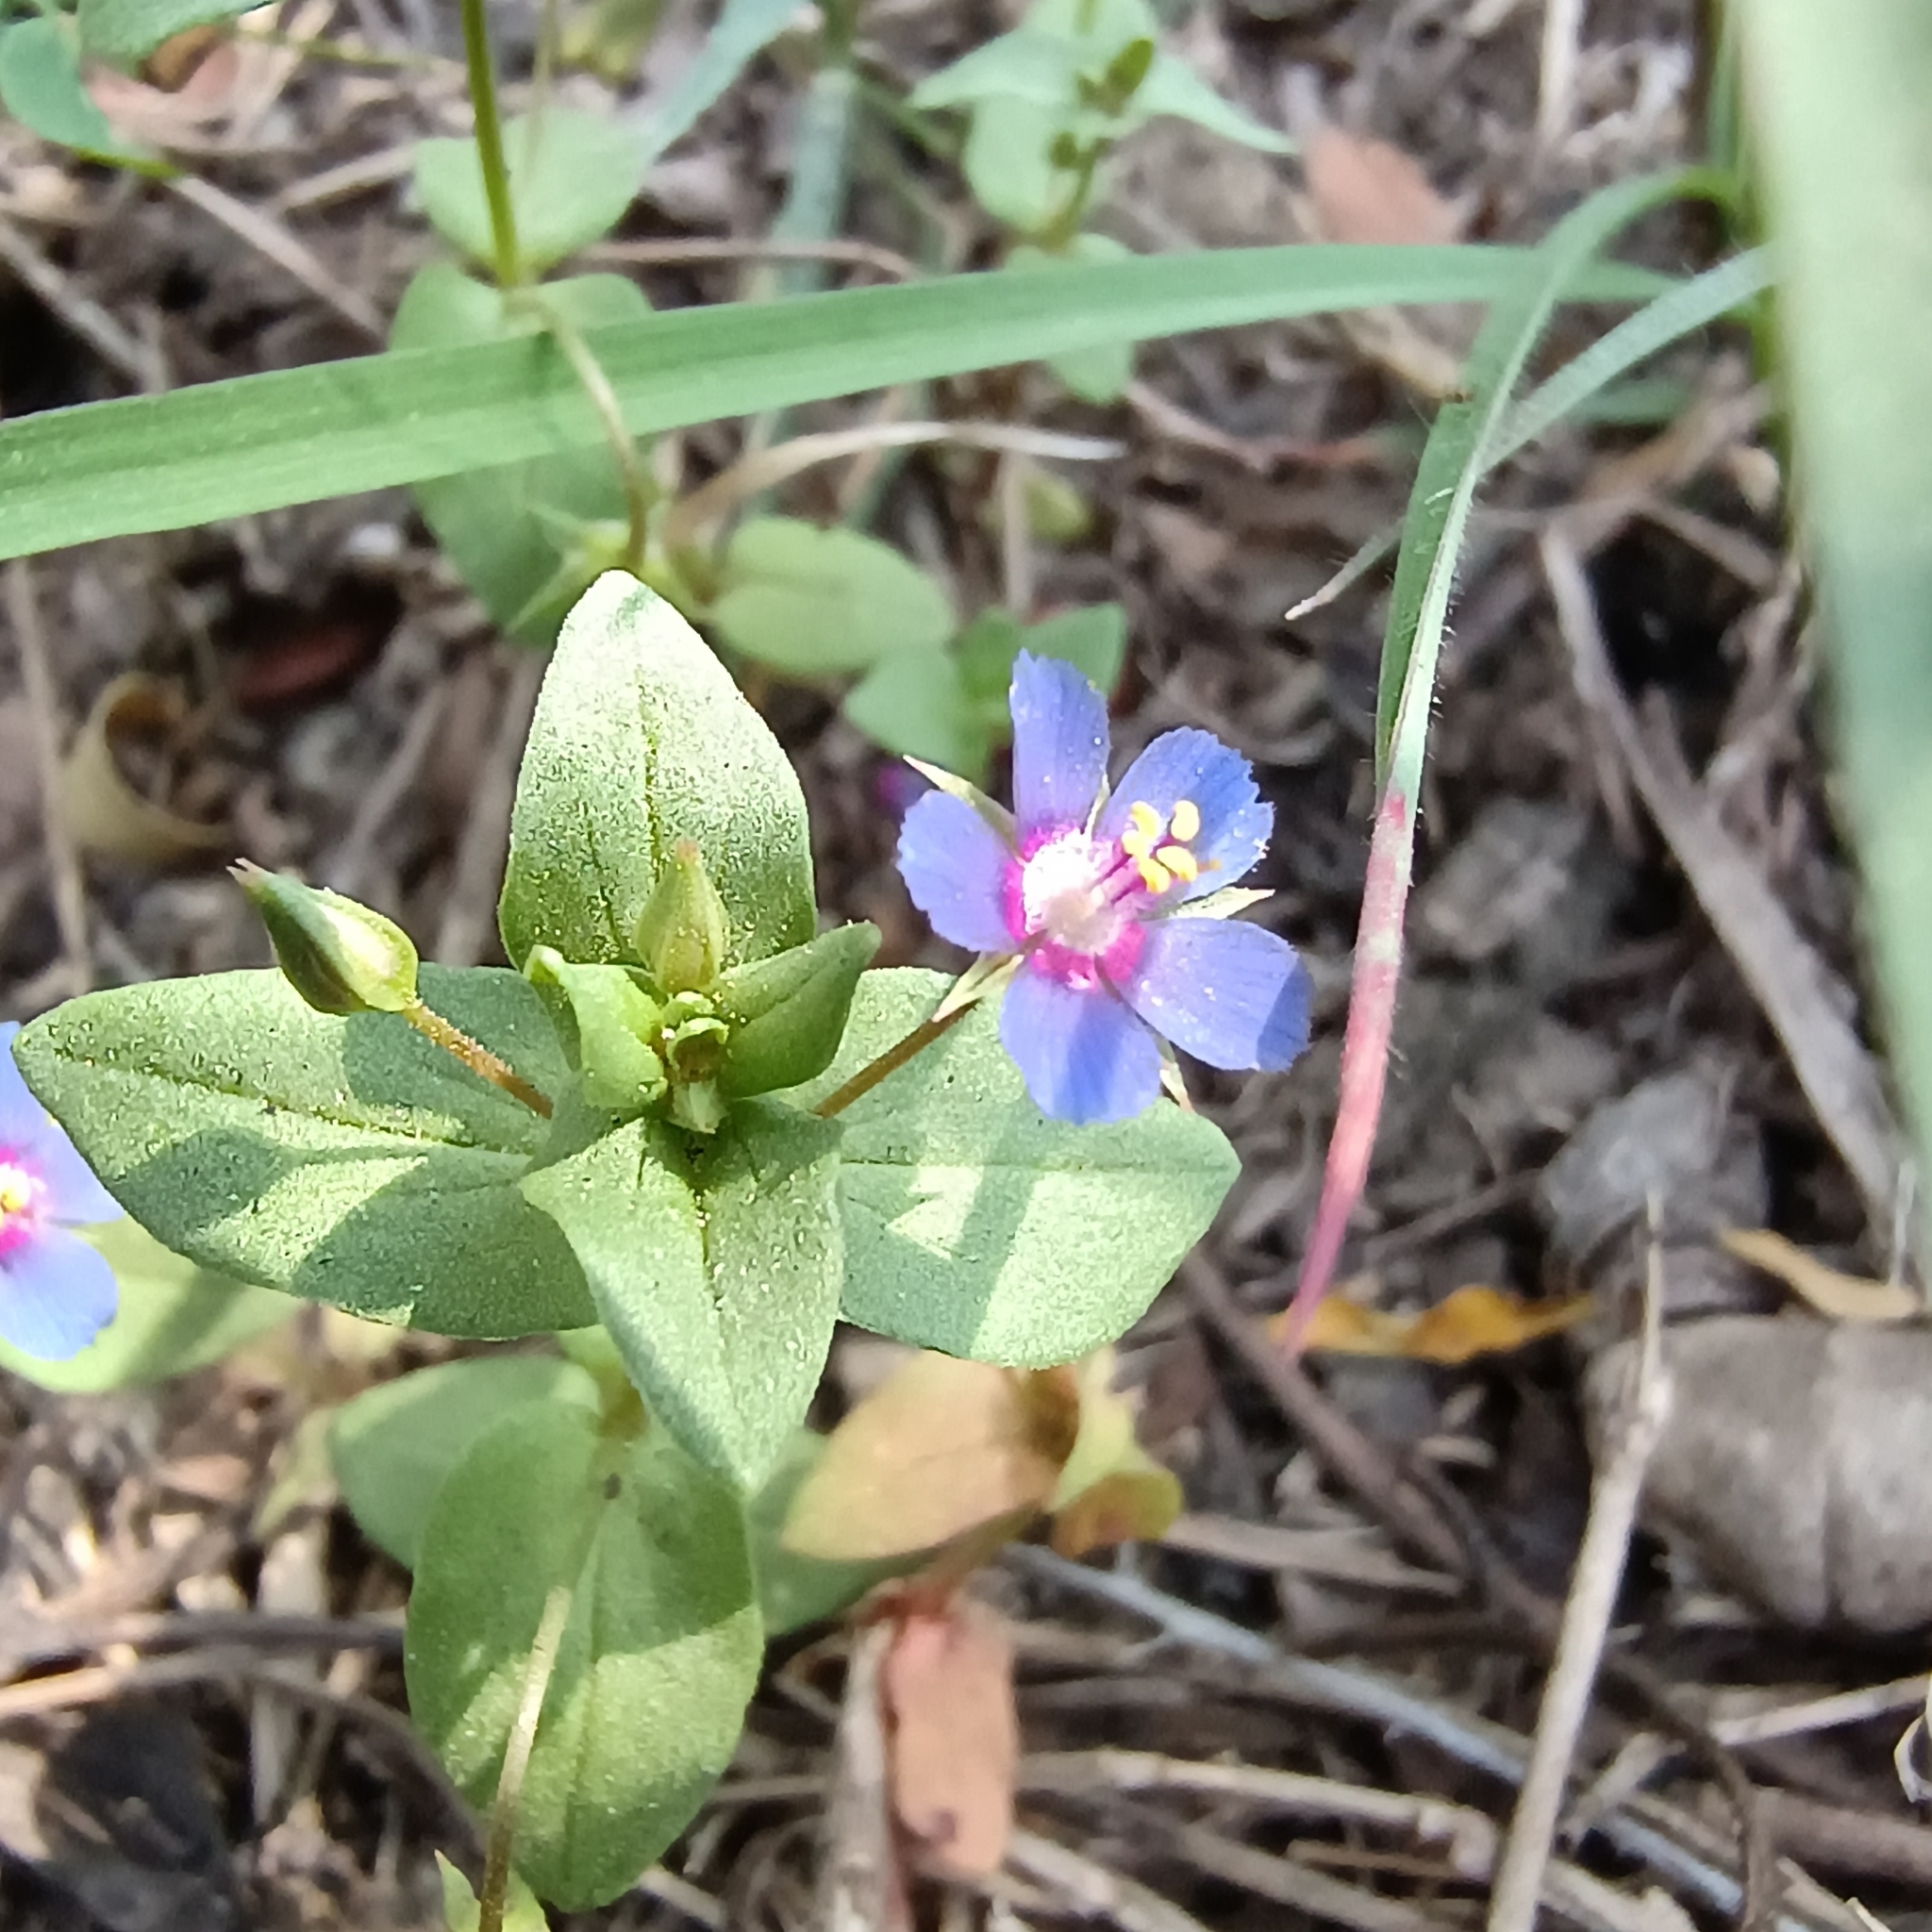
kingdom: Plantae
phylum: Tracheophyta
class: Magnoliopsida
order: Ericales
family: Primulaceae
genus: Lysimachia
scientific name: Lysimachia loeflingii
